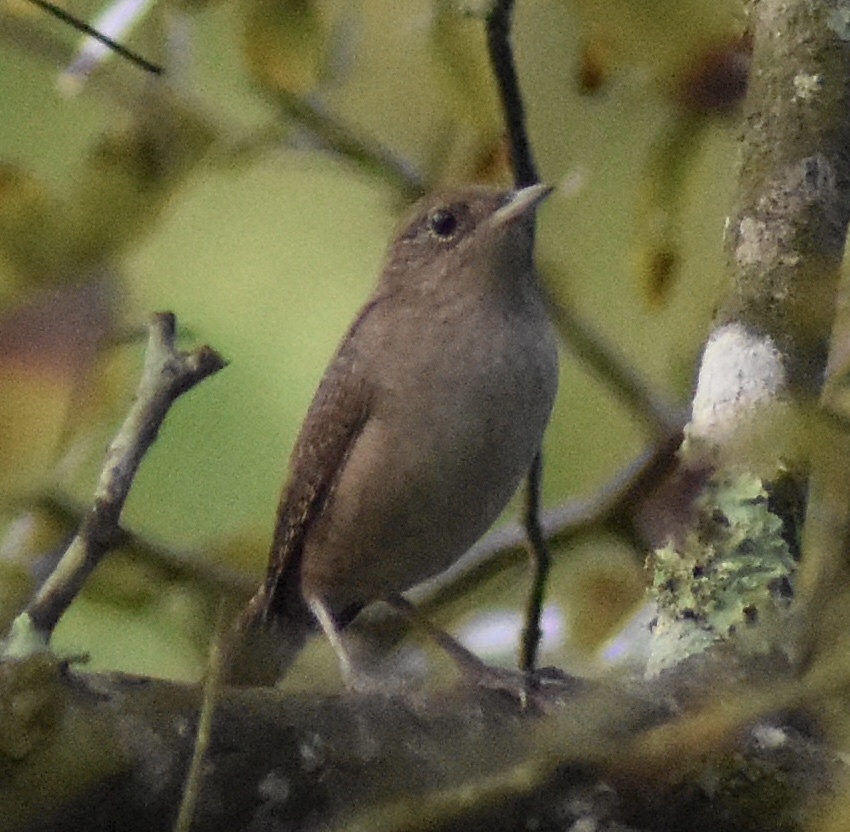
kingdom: Animalia
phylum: Chordata
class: Aves
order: Passeriformes
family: Troglodytidae
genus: Troglodytes
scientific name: Troglodytes aedon
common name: House wren
